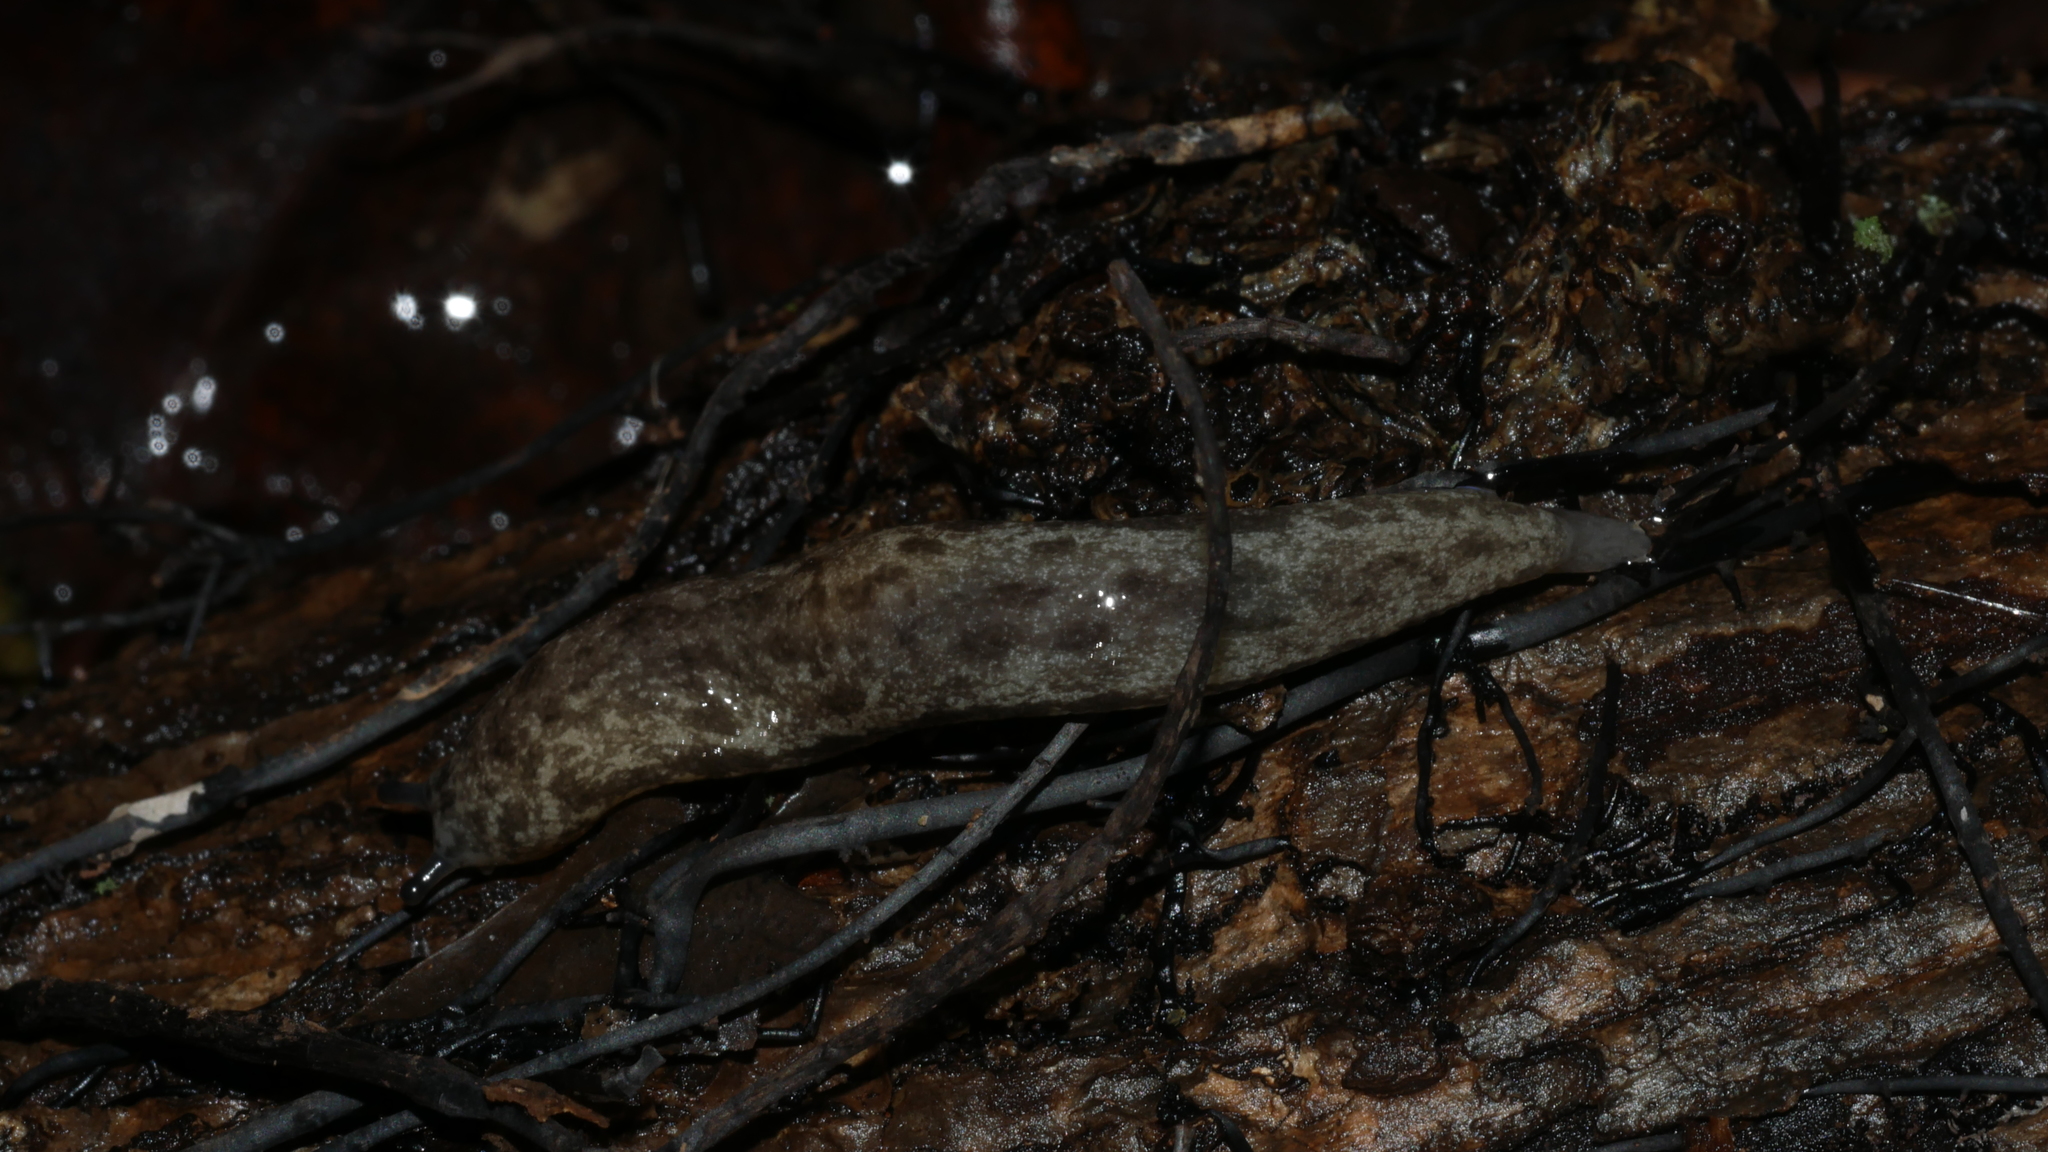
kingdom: Animalia
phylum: Mollusca
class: Gastropoda
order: Stylommatophora
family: Philomycidae
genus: Megapallifera
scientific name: Megapallifera mutabilis
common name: Changeable mantleslug
